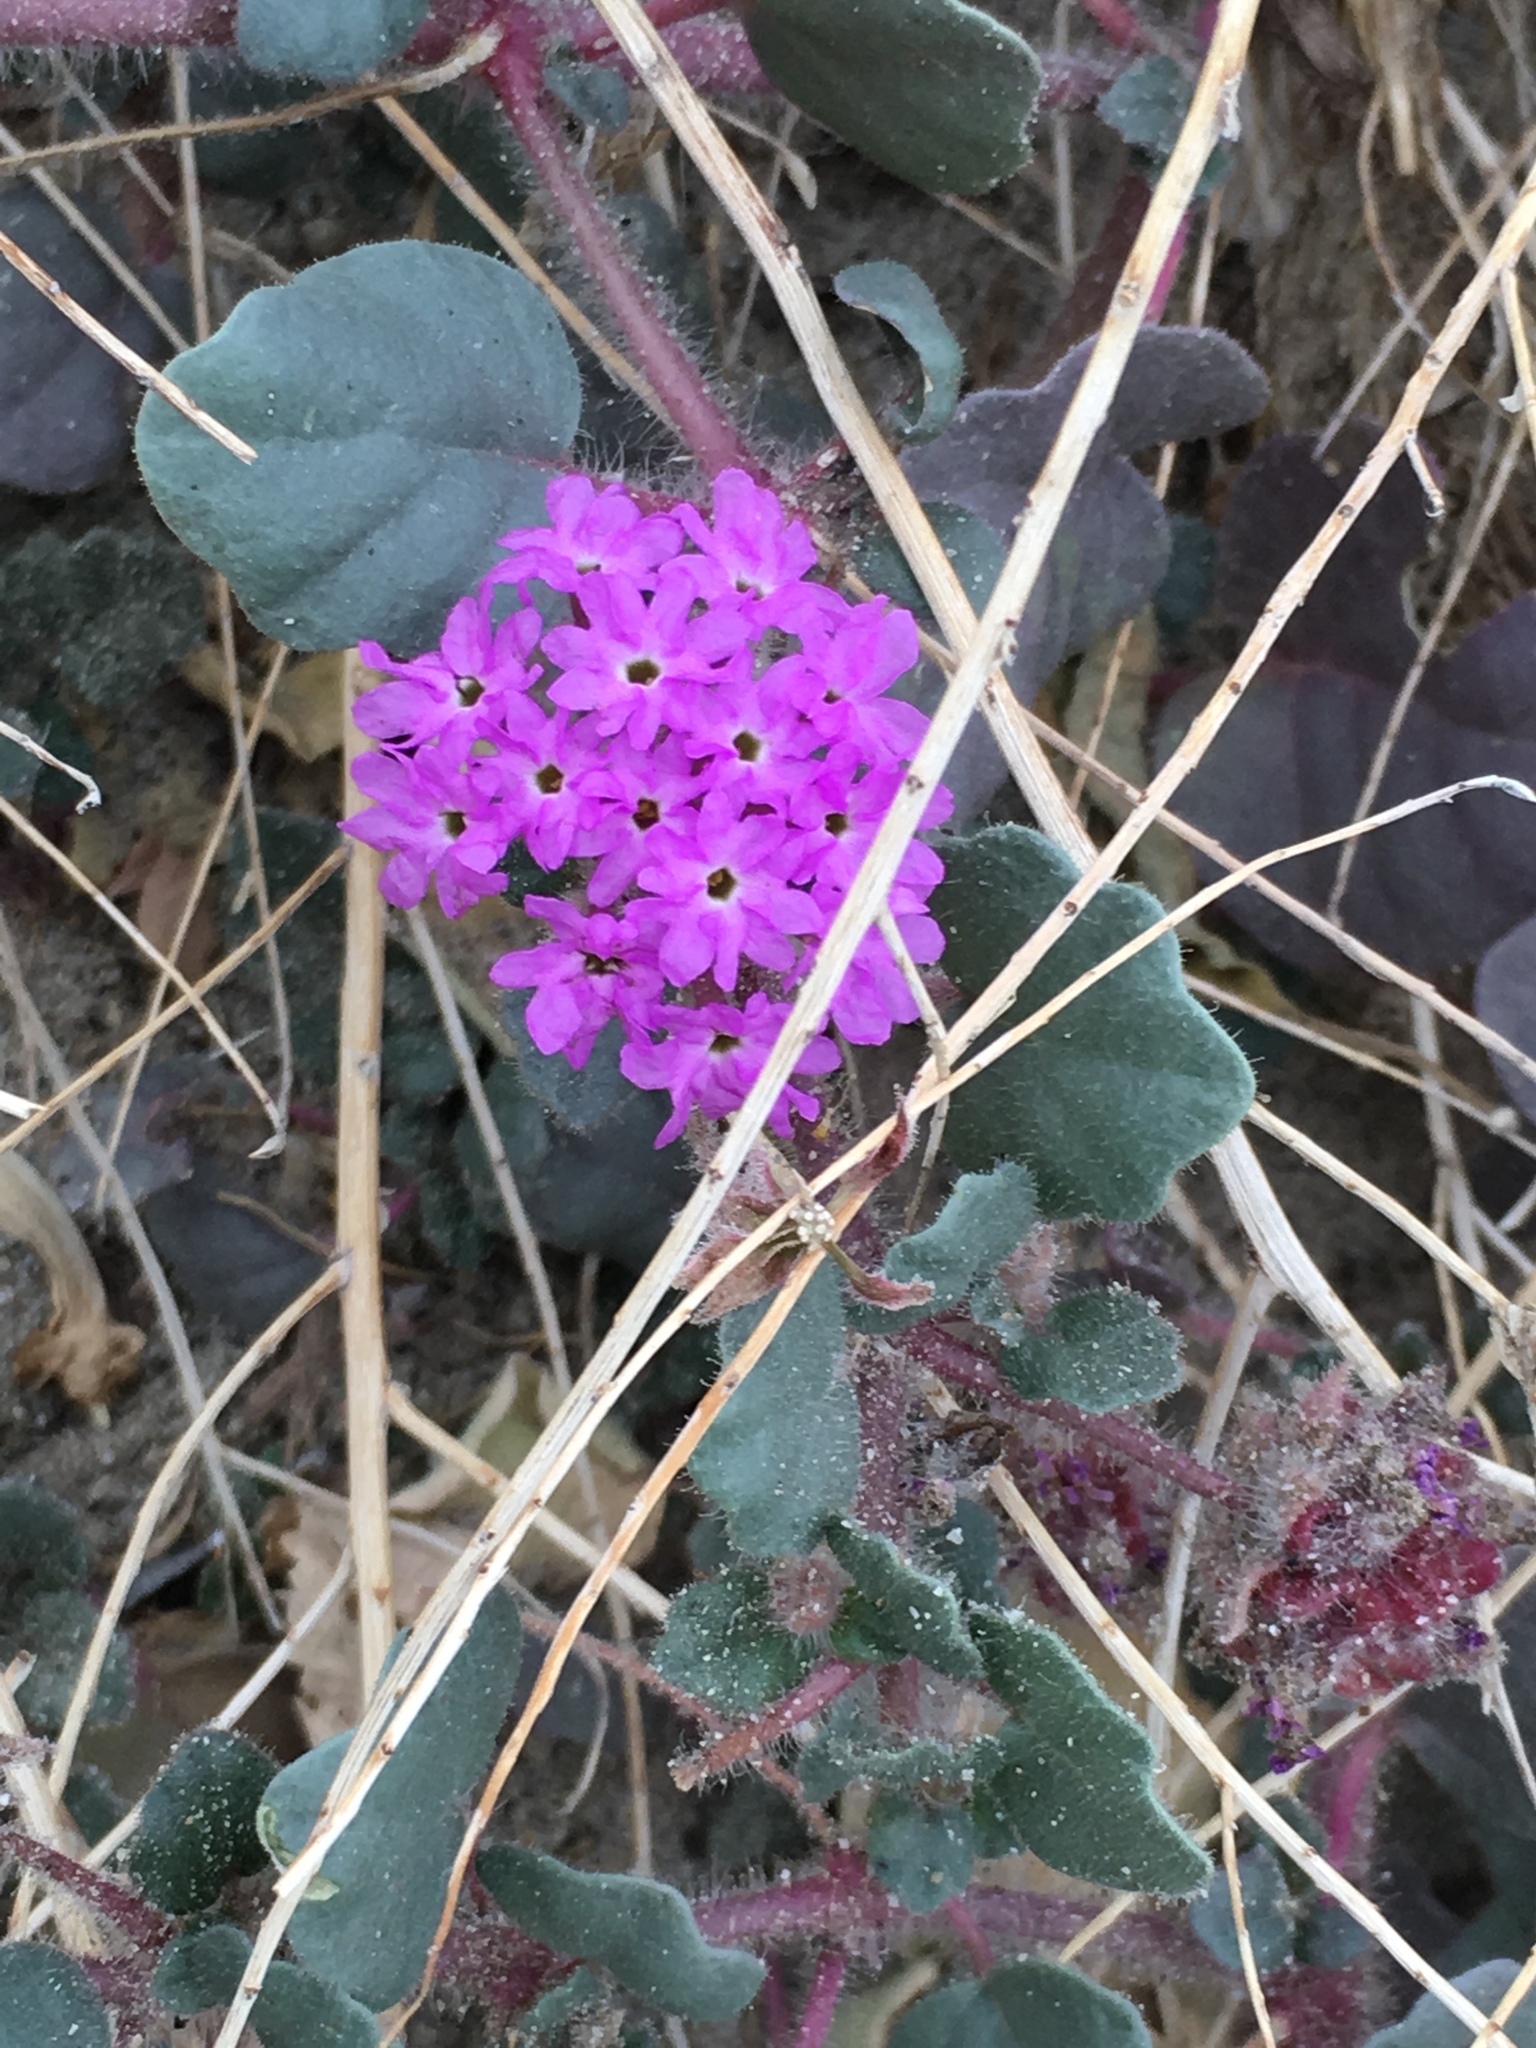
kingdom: Plantae
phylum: Tracheophyta
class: Magnoliopsida
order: Caryophyllales
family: Nyctaginaceae
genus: Abronia
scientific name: Abronia villosa
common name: Desert sand-verbena
